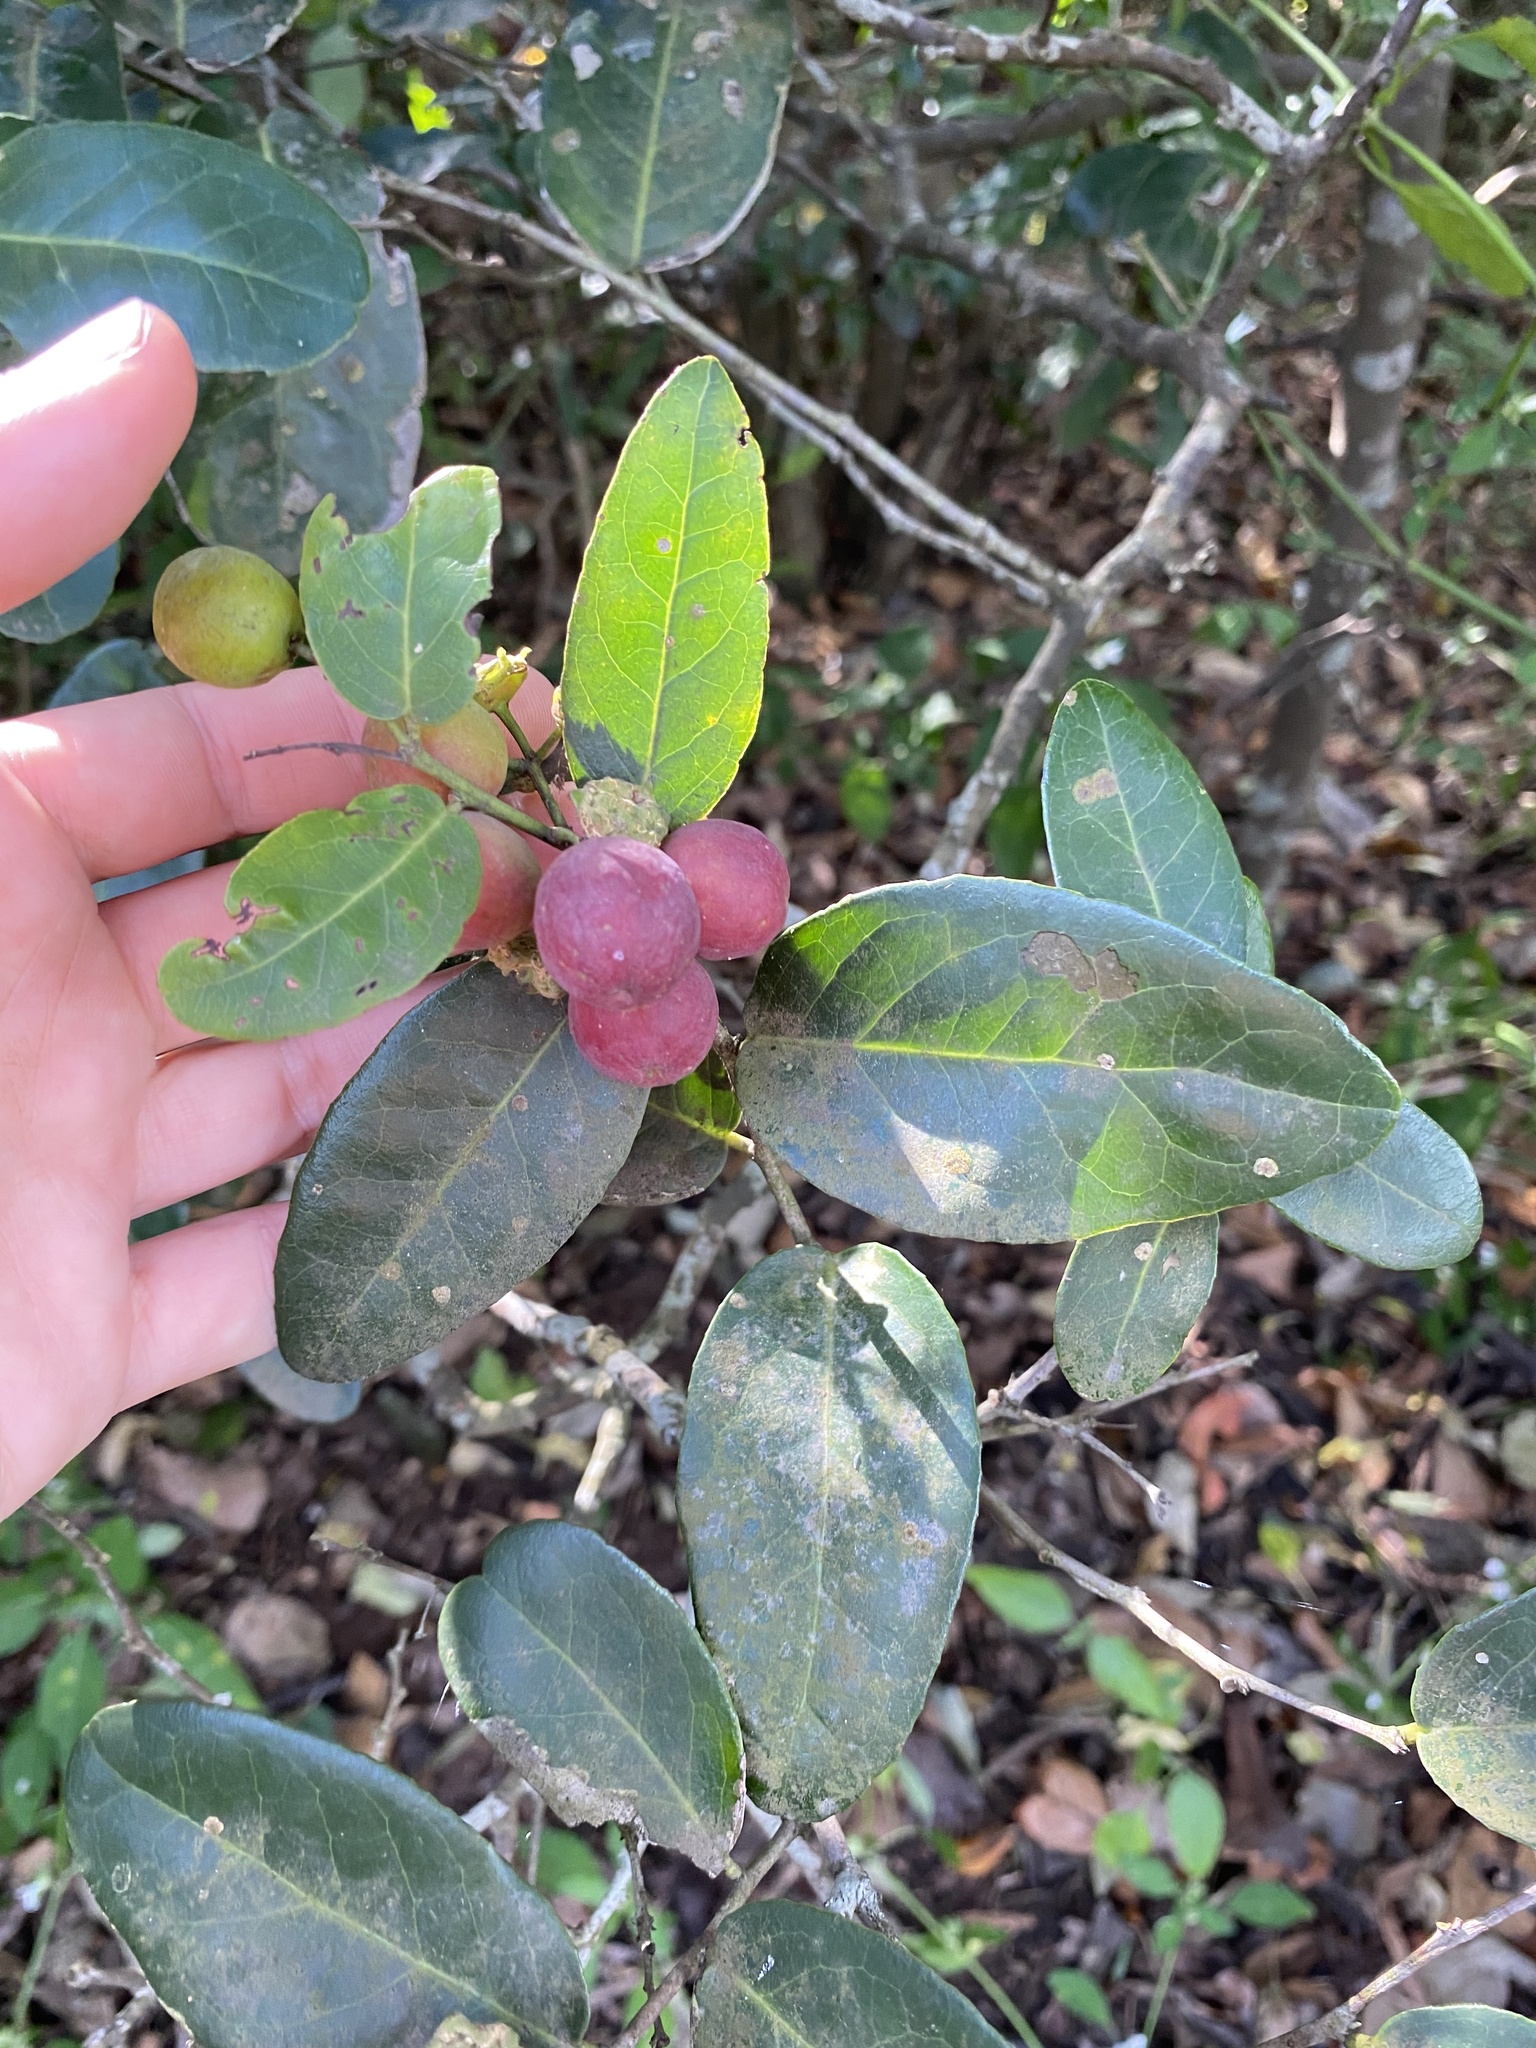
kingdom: Plantae
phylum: Tracheophyta
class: Magnoliopsida
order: Celastrales
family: Celastraceae
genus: Mystroxylon
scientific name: Mystroxylon aethiopicum
